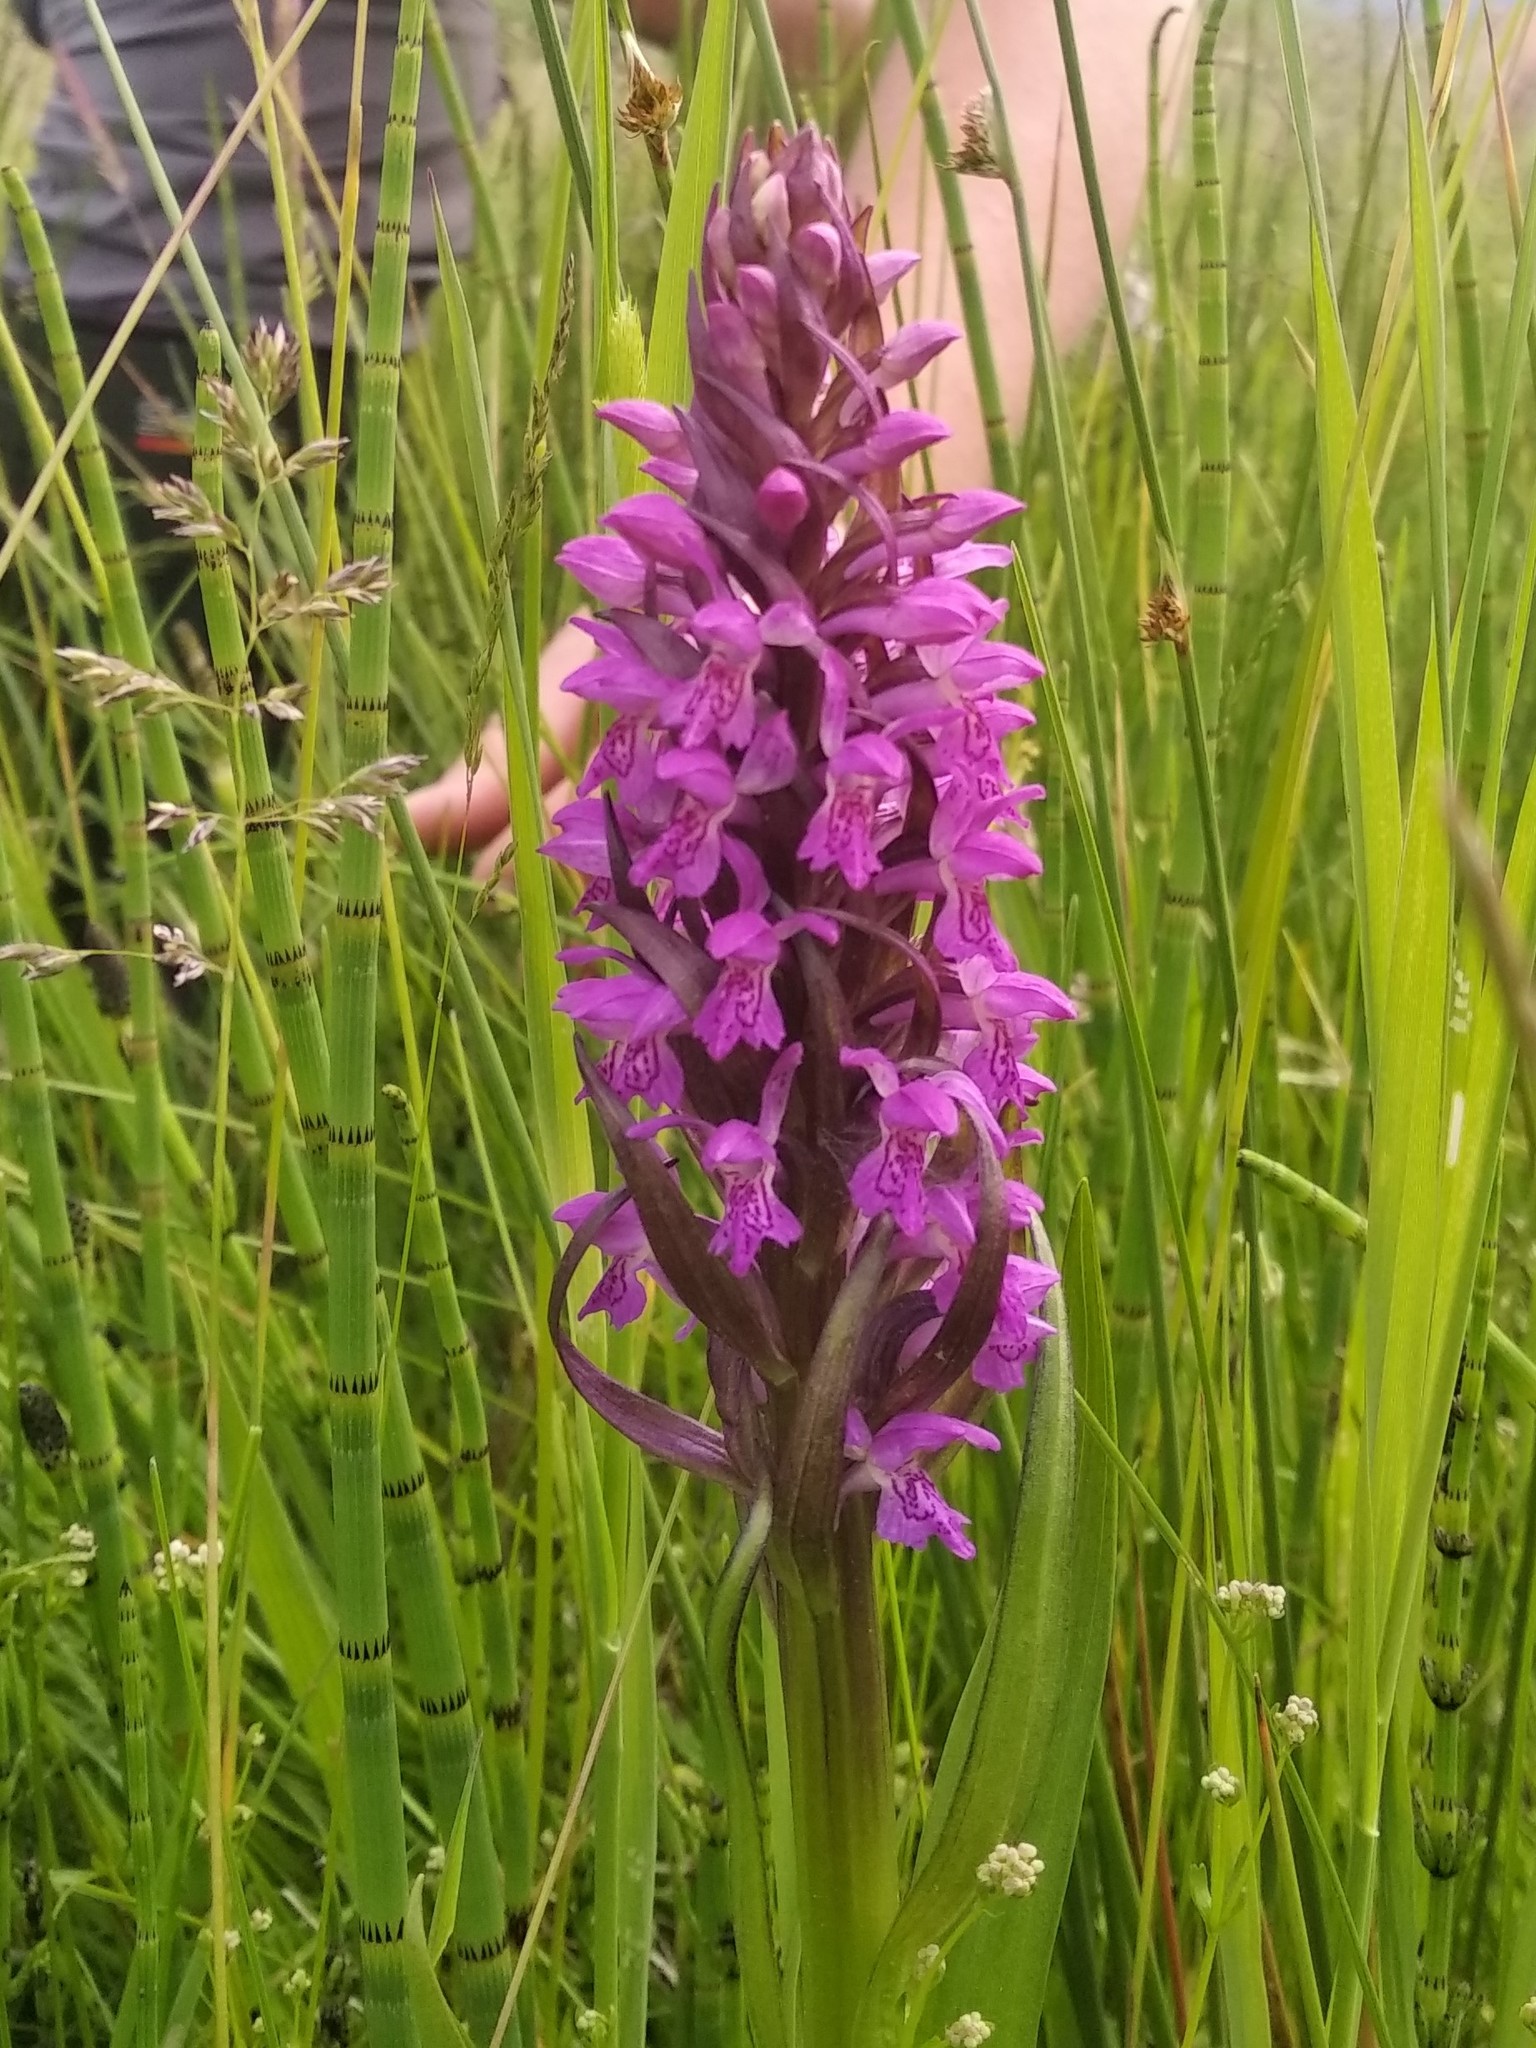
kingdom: Plantae
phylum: Tracheophyta
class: Liliopsida
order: Asparagales
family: Orchidaceae
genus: Dactylorhiza
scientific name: Dactylorhiza incarnata
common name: Early marsh-orchid
